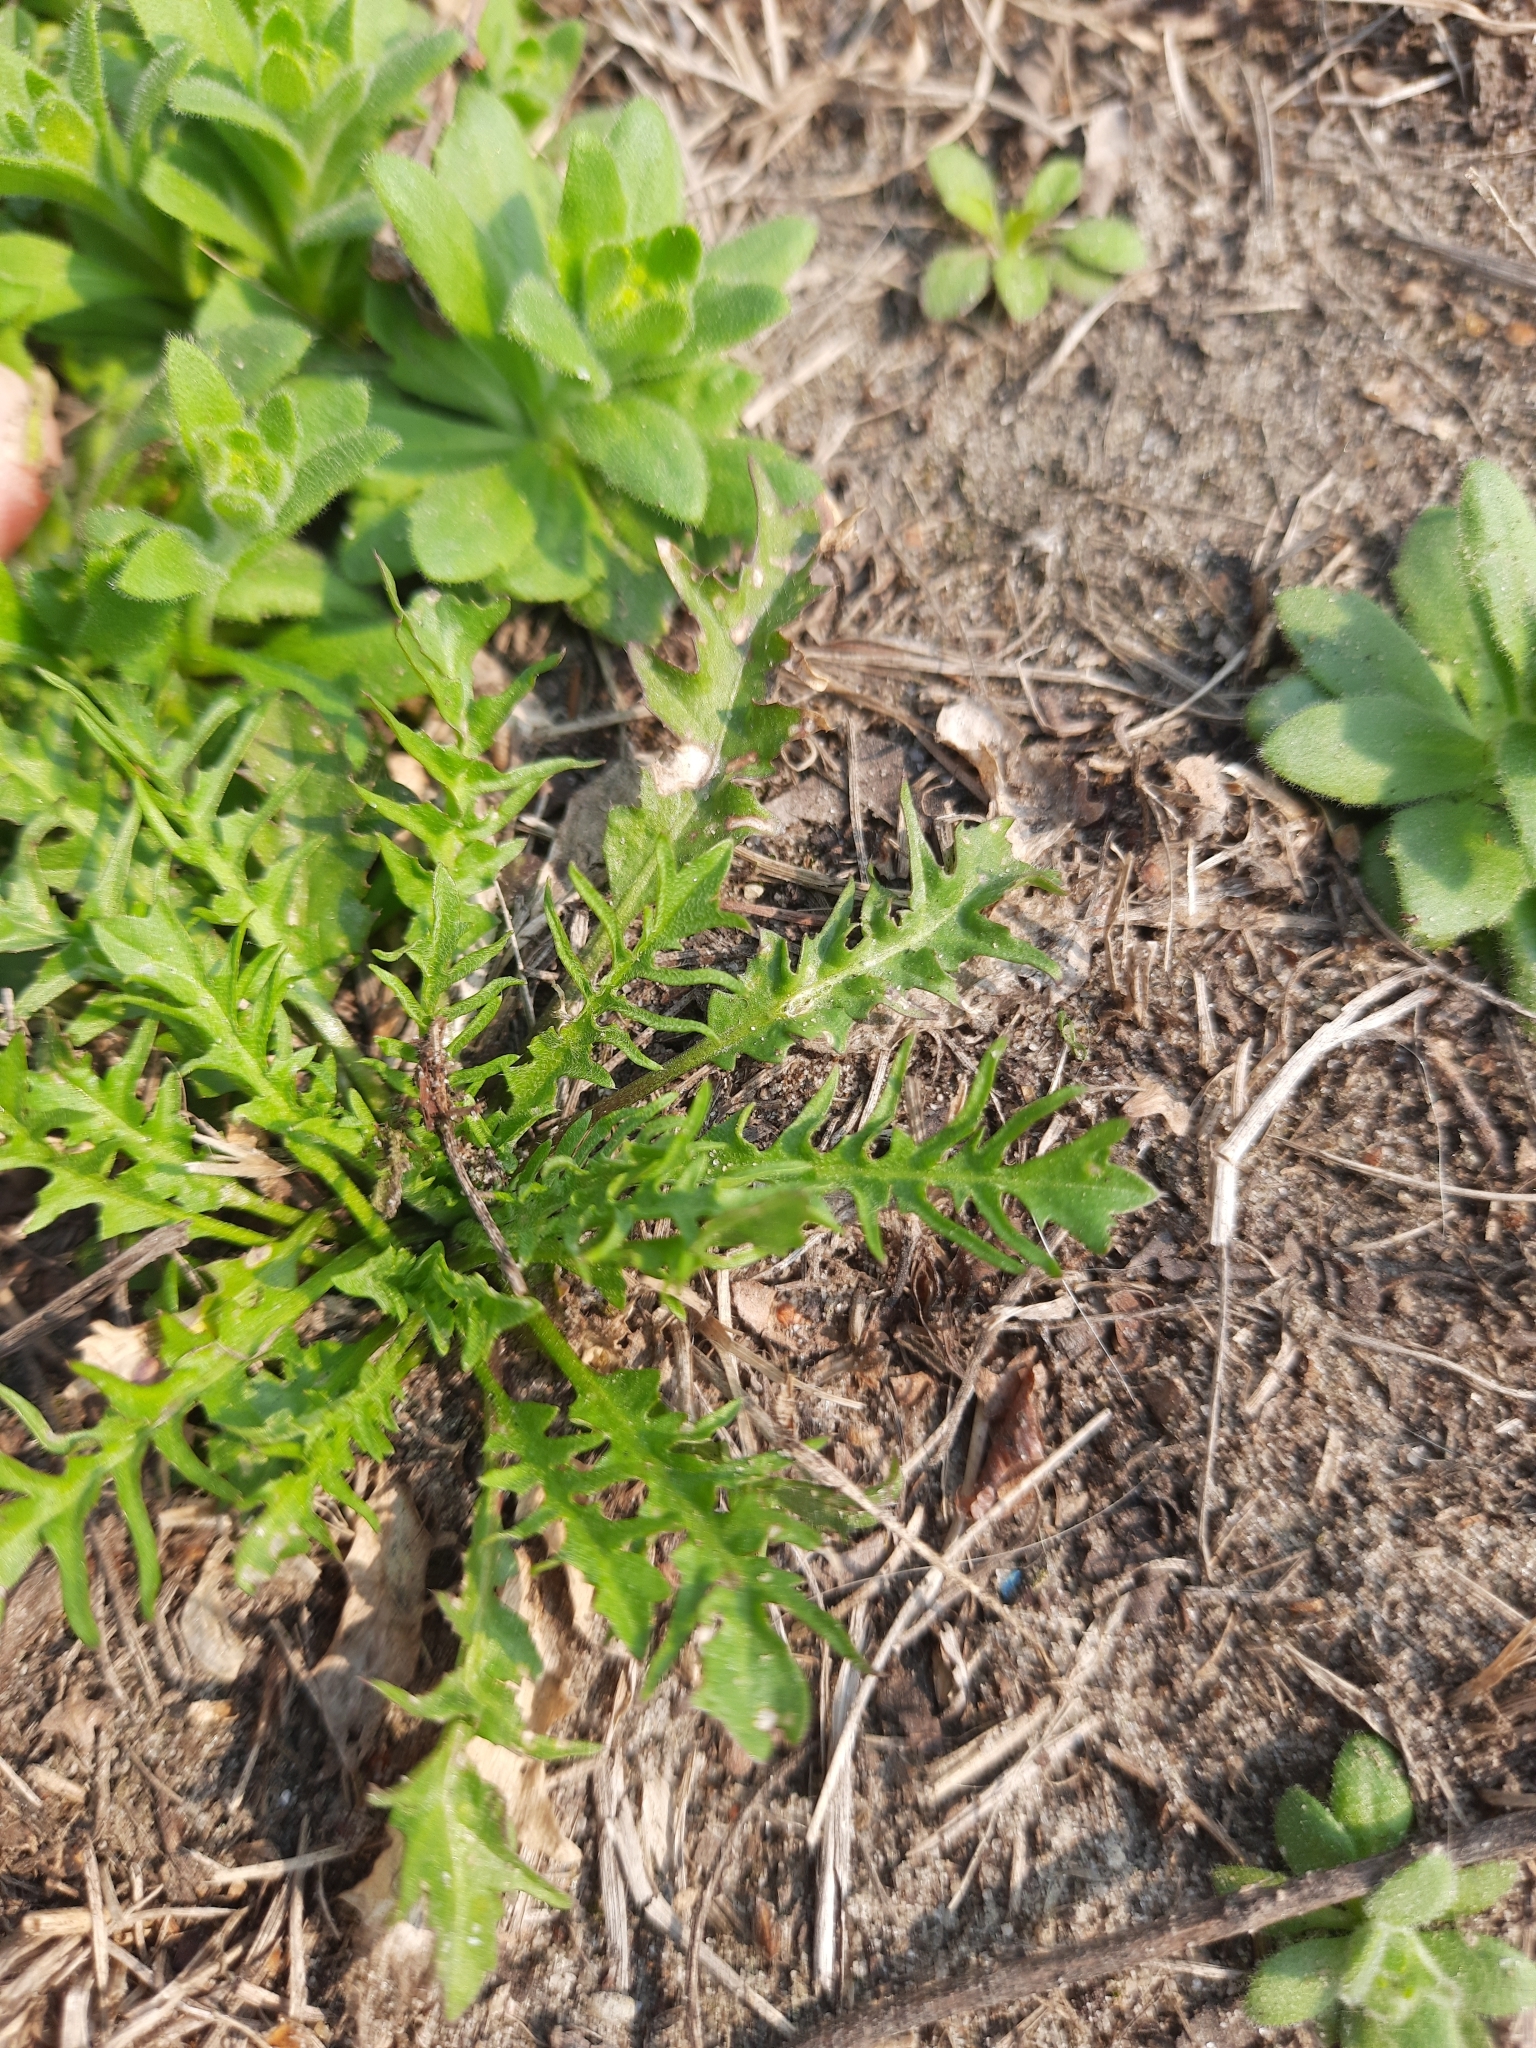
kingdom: Plantae
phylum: Tracheophyta
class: Magnoliopsida
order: Brassicales
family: Brassicaceae
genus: Capsella
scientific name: Capsella bursa-pastoris
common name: Shepherd's purse
